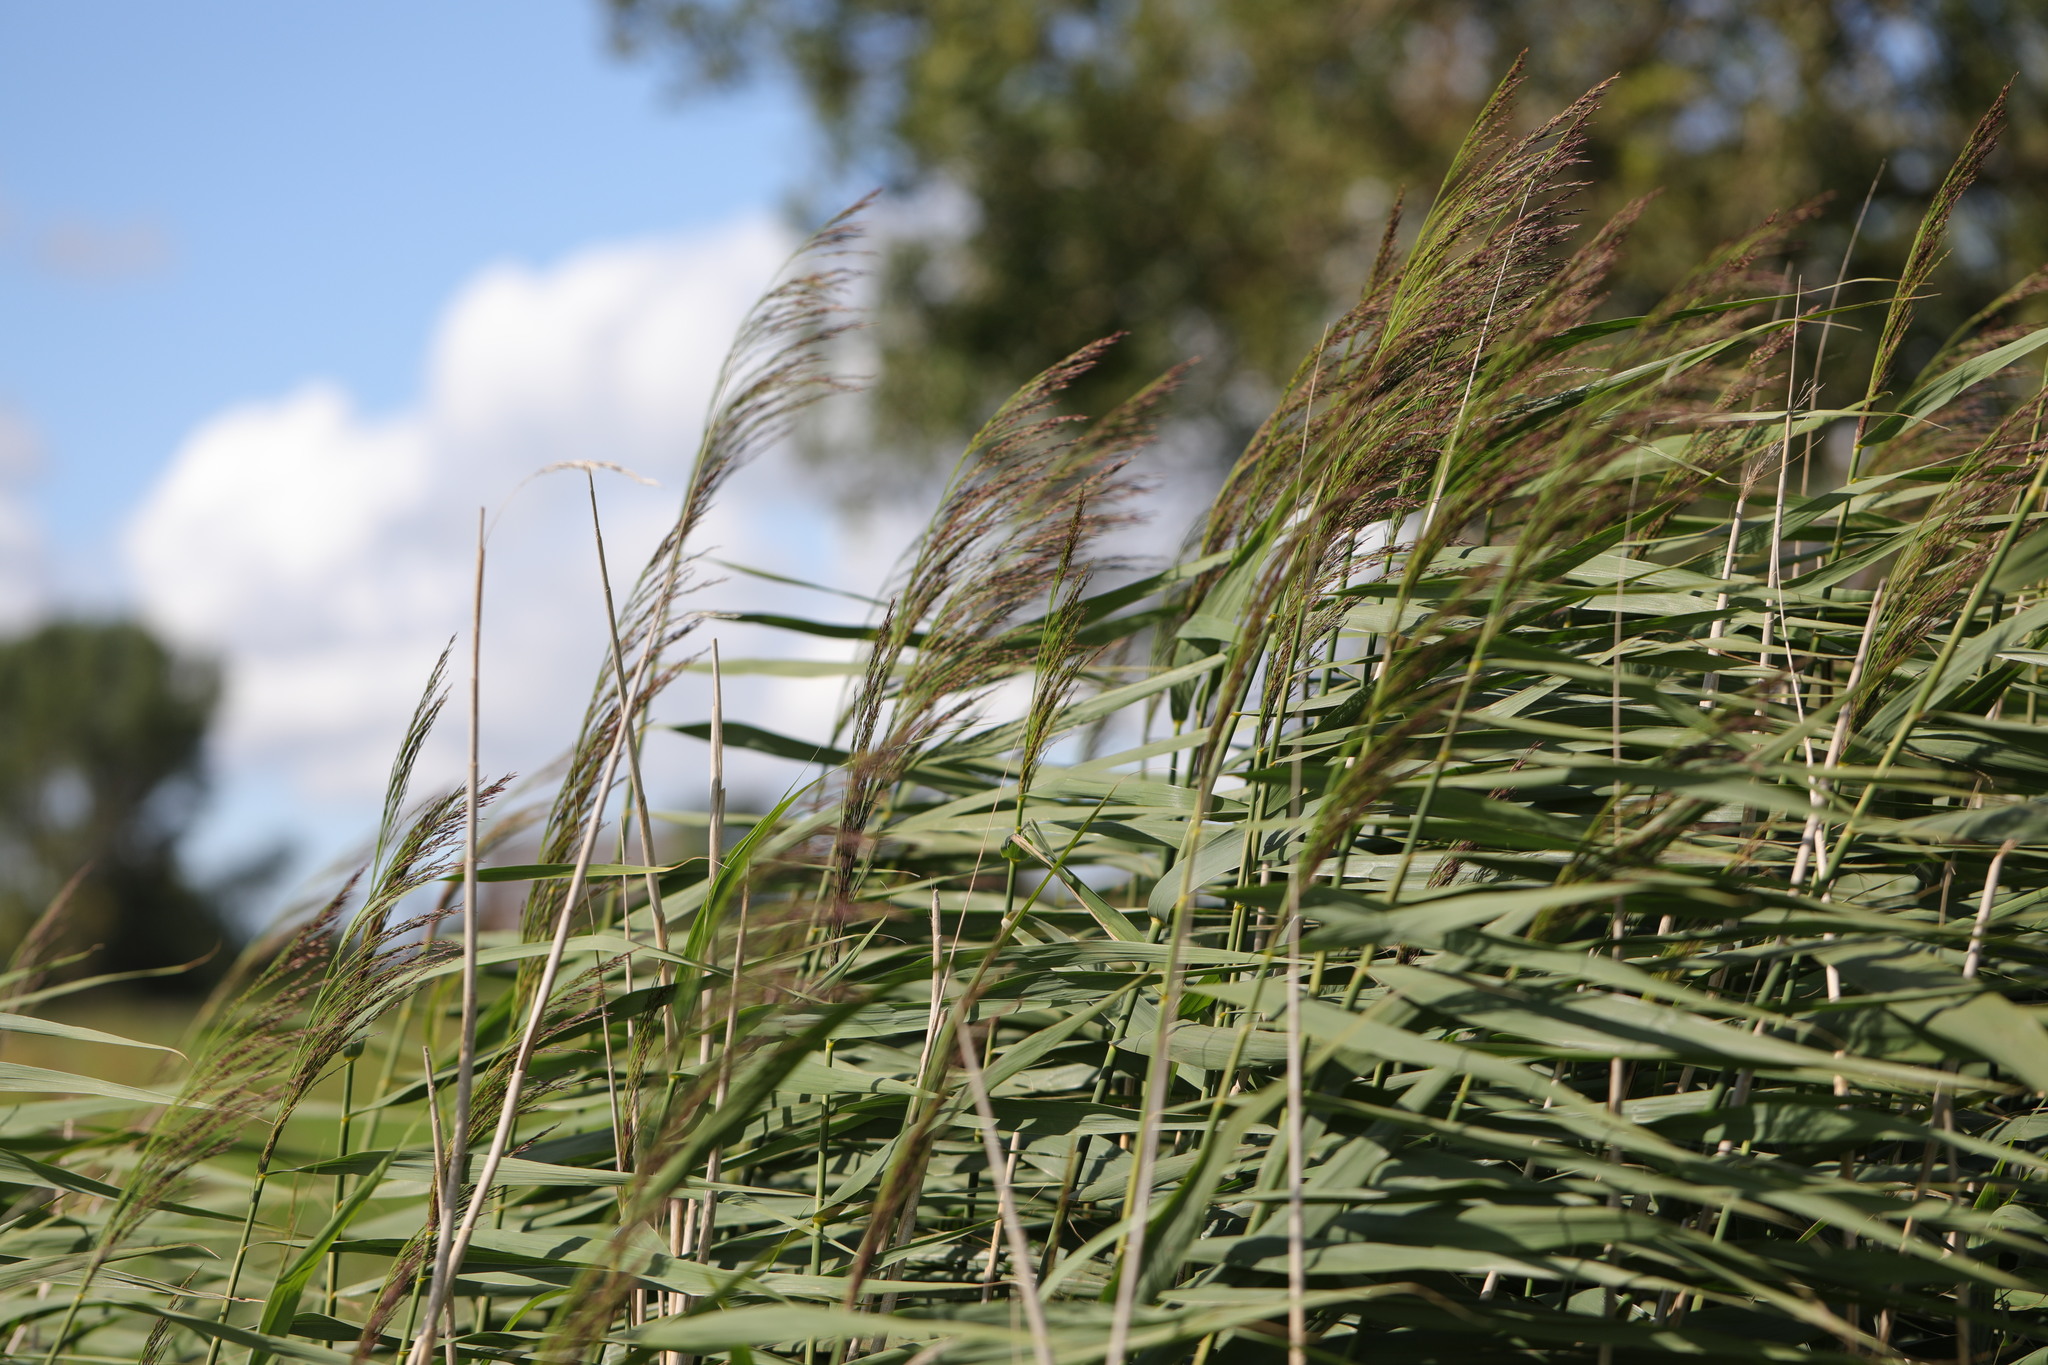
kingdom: Plantae
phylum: Tracheophyta
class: Liliopsida
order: Poales
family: Poaceae
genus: Phragmites
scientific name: Phragmites australis
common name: Common reed
